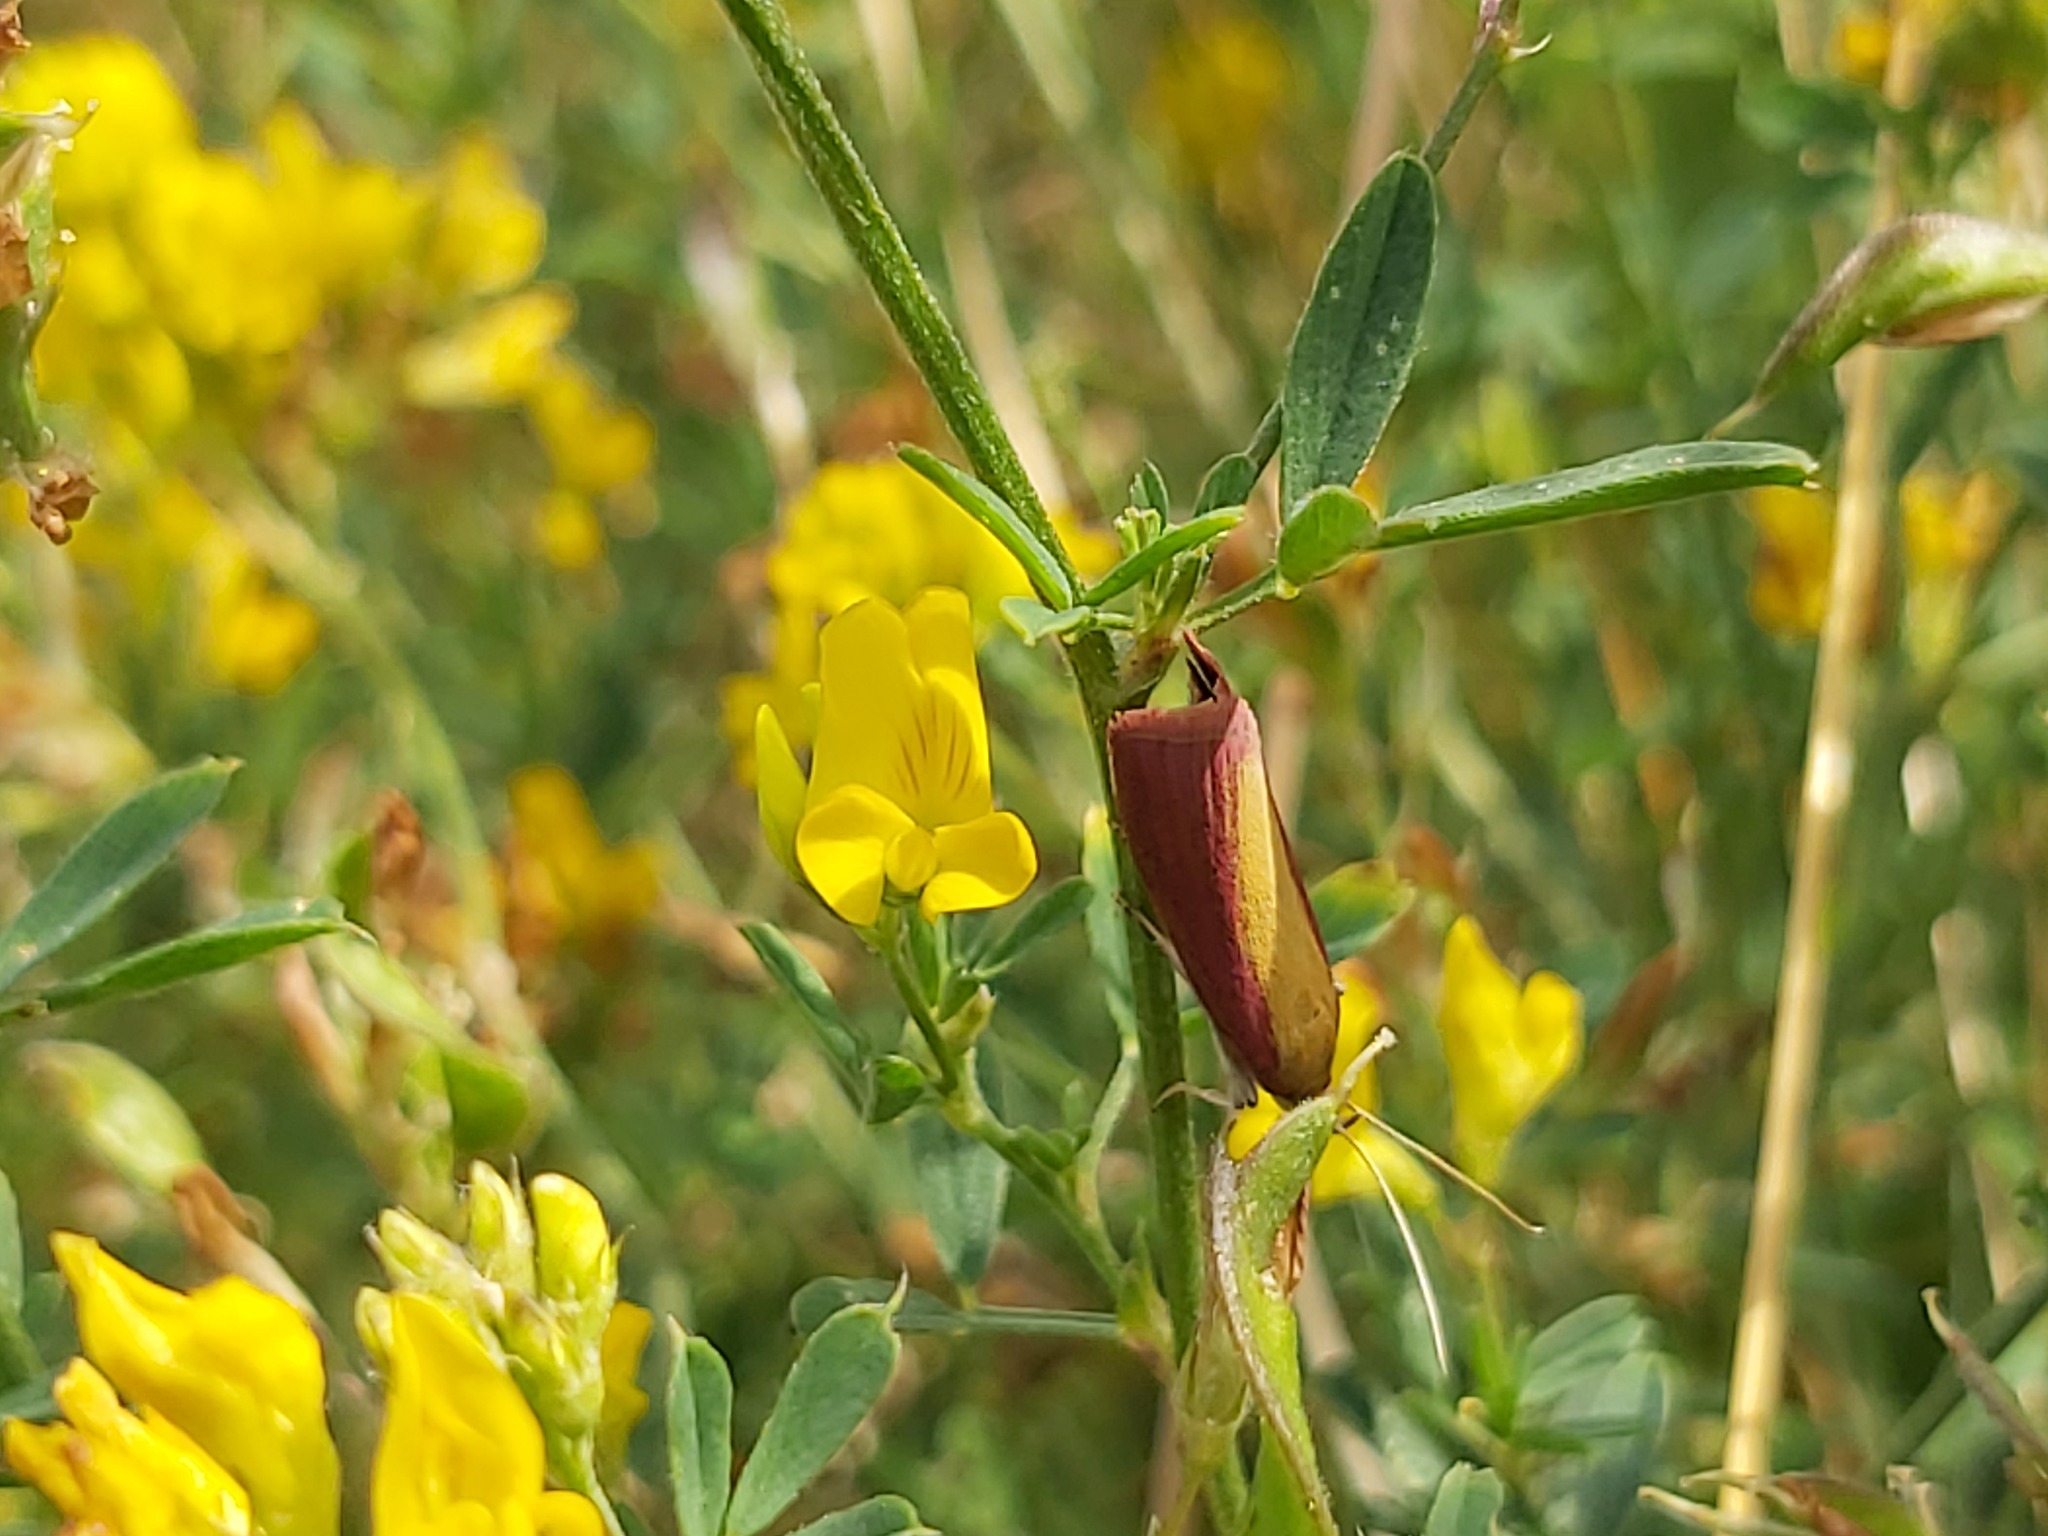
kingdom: Animalia
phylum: Arthropoda
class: Insecta
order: Lepidoptera
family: Pyralidae
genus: Oncocera
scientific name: Oncocera semirubella
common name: Rosy-striped knot-horn
